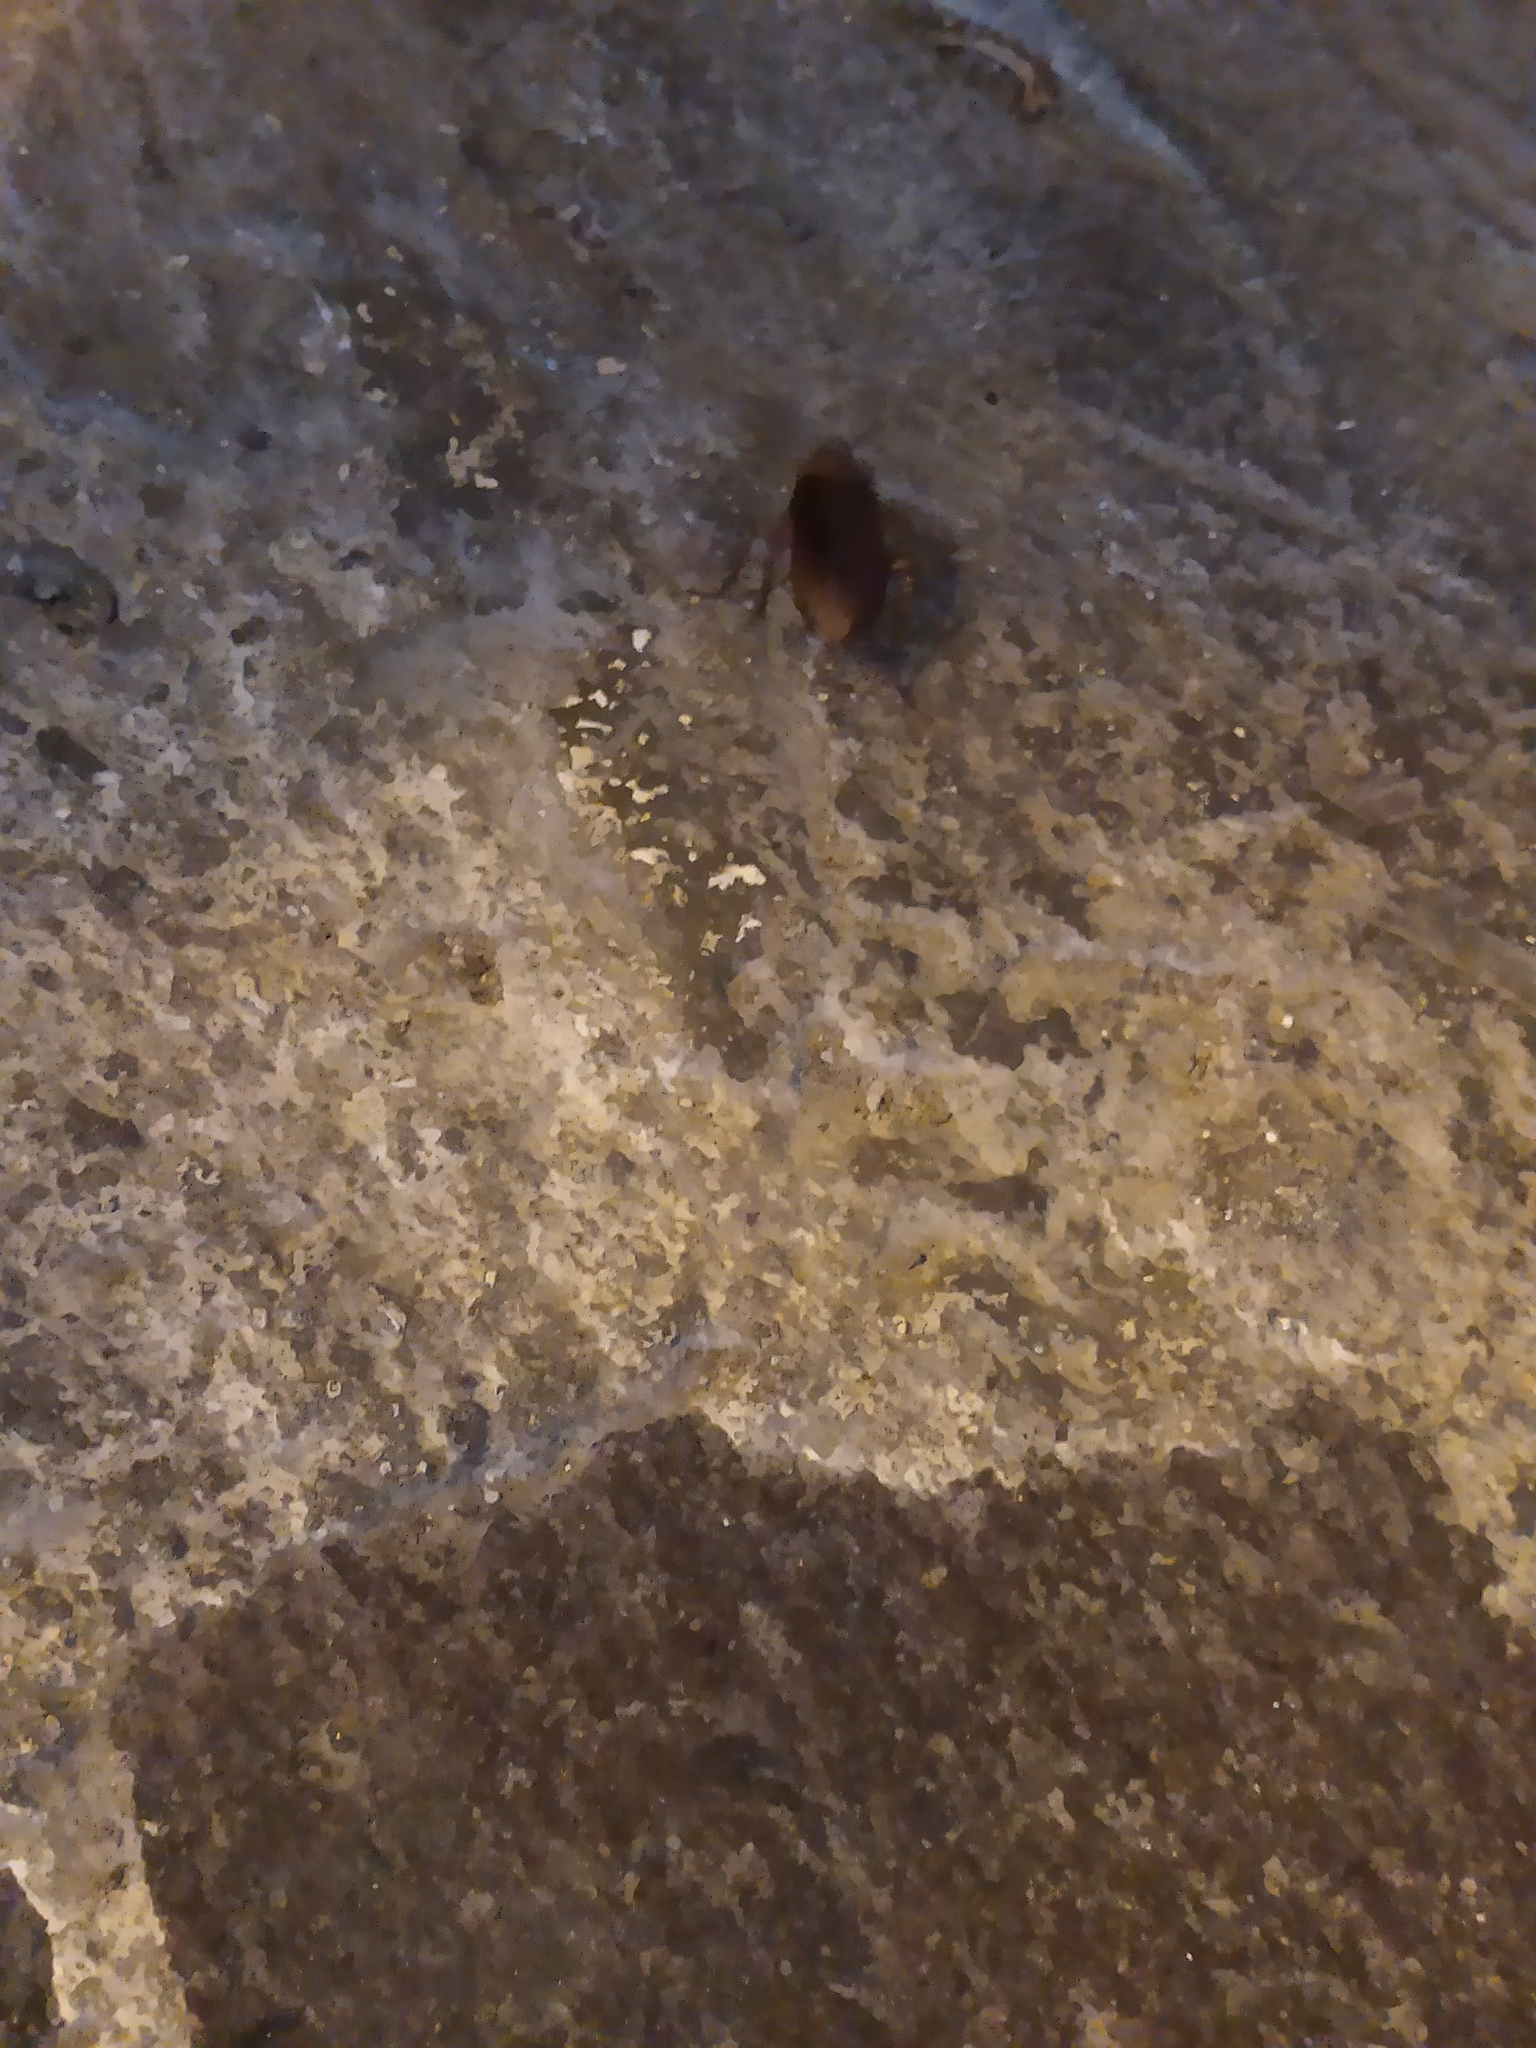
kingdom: Animalia
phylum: Arthropoda
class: Insecta
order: Blattodea
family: Blattidae
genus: Periplaneta
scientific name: Periplaneta americana
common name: American cockroach
